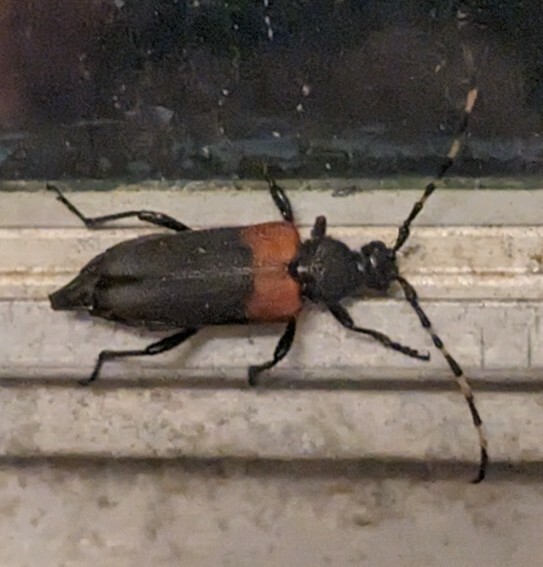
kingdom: Animalia
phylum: Arthropoda
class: Insecta
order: Coleoptera
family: Cerambycidae
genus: Stictoleptura
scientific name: Stictoleptura canadensis
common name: Red-shouldered pine borer
